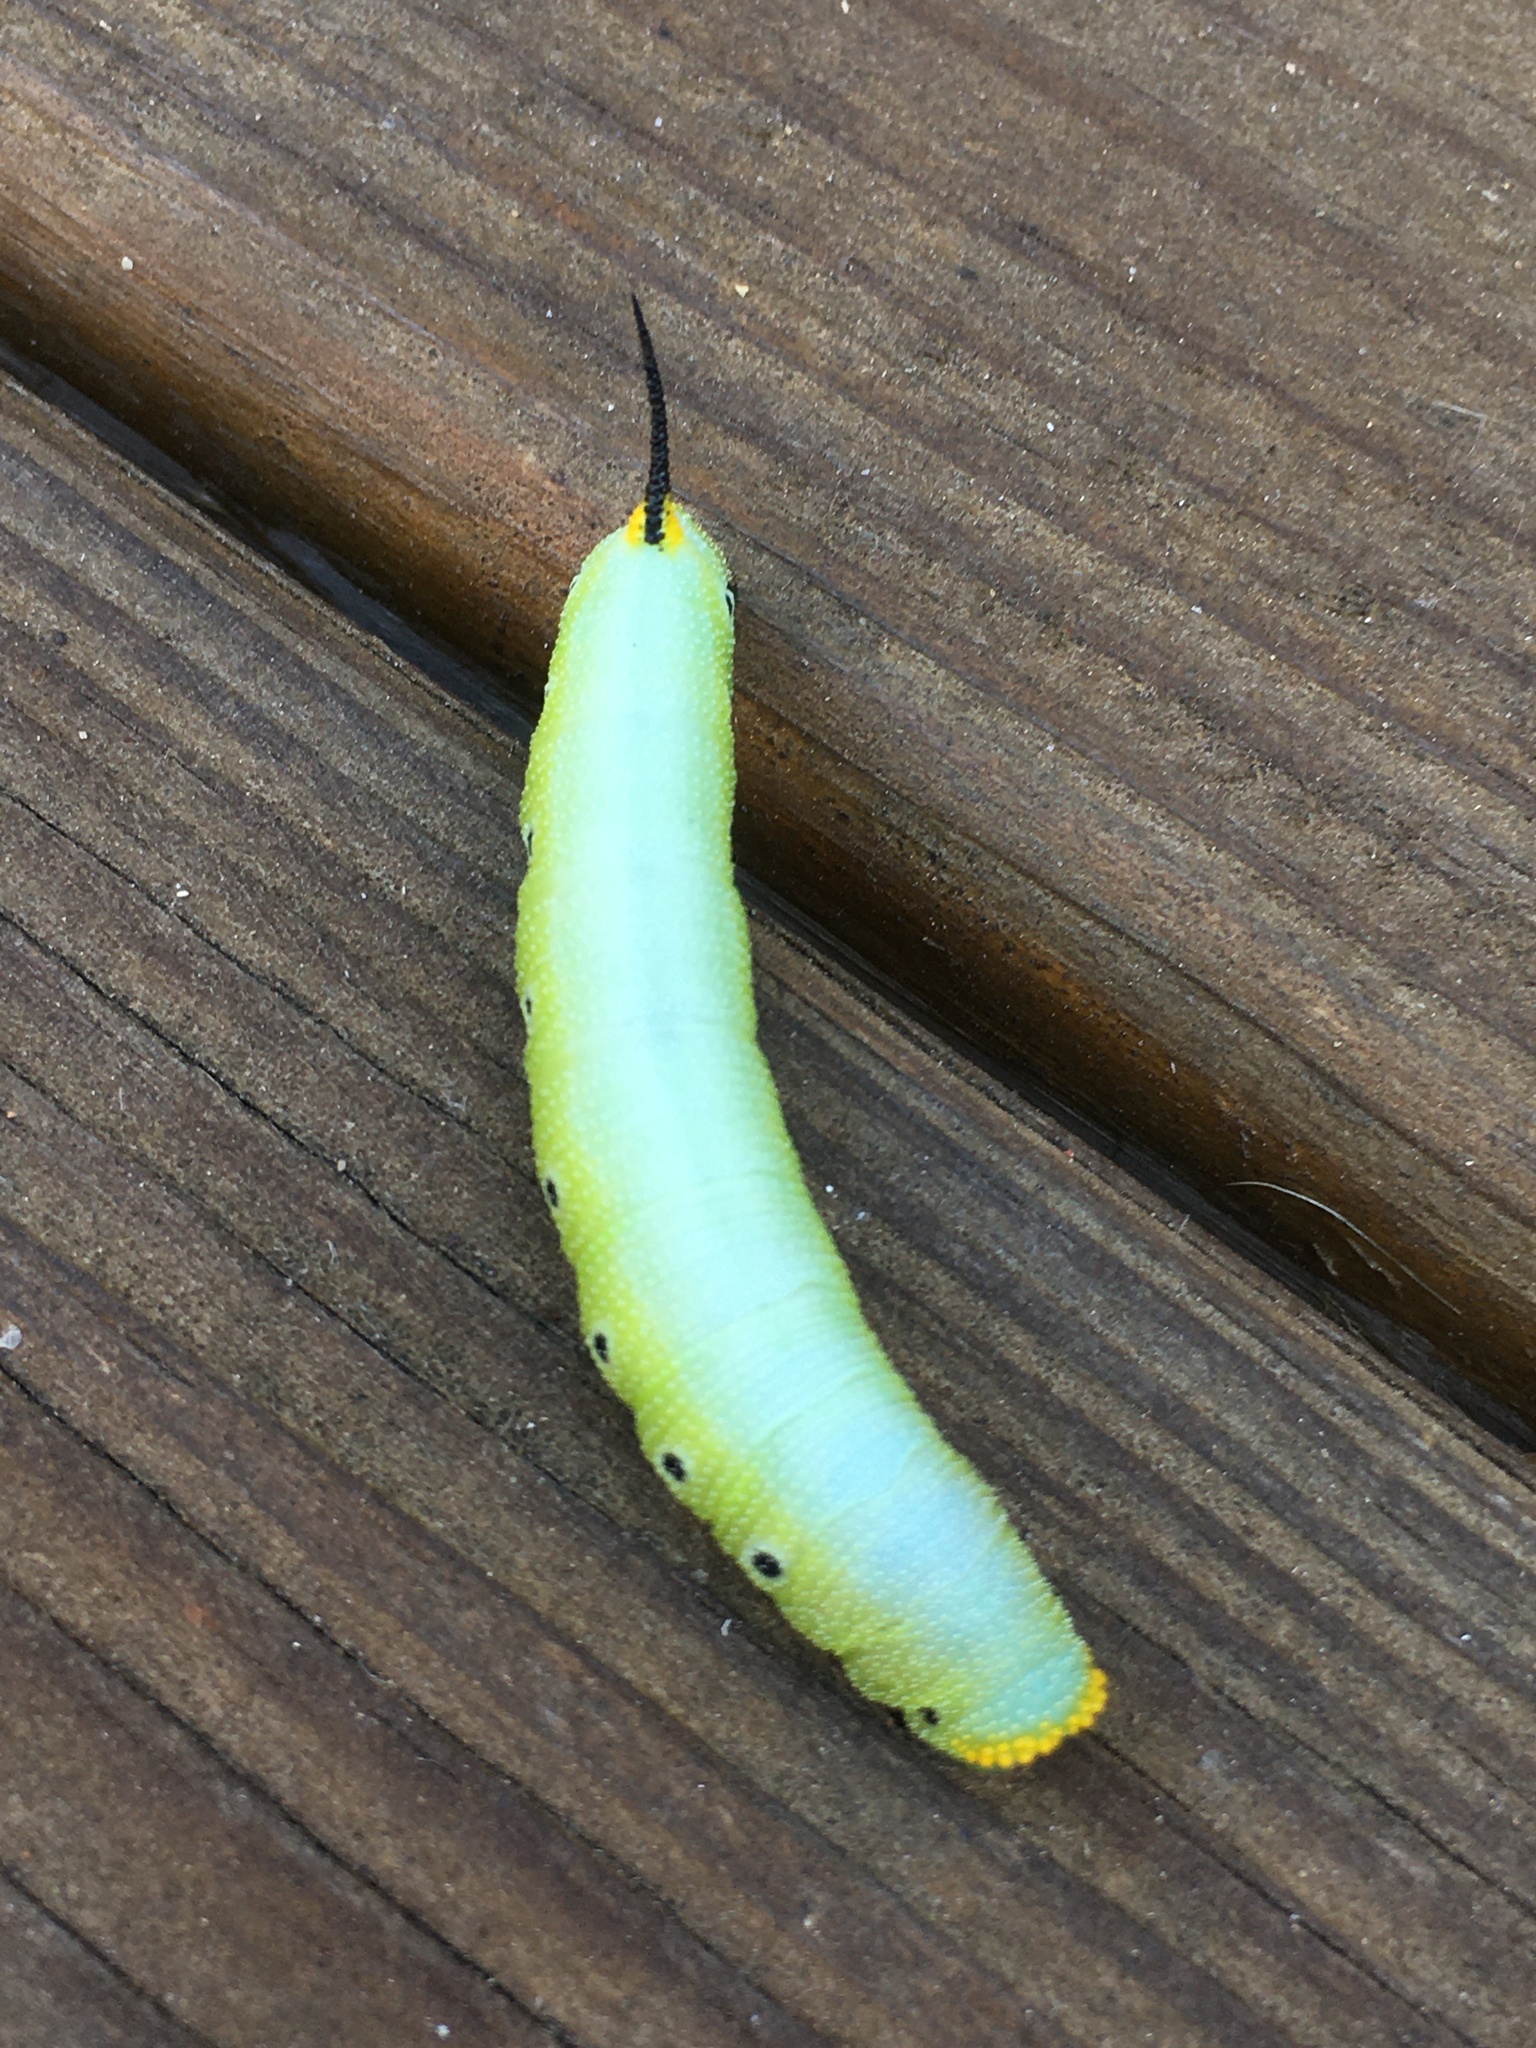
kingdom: Animalia
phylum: Arthropoda
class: Insecta
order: Lepidoptera
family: Sphingidae
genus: Hemaris
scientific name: Hemaris diffinis
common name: Bumblebee moth
